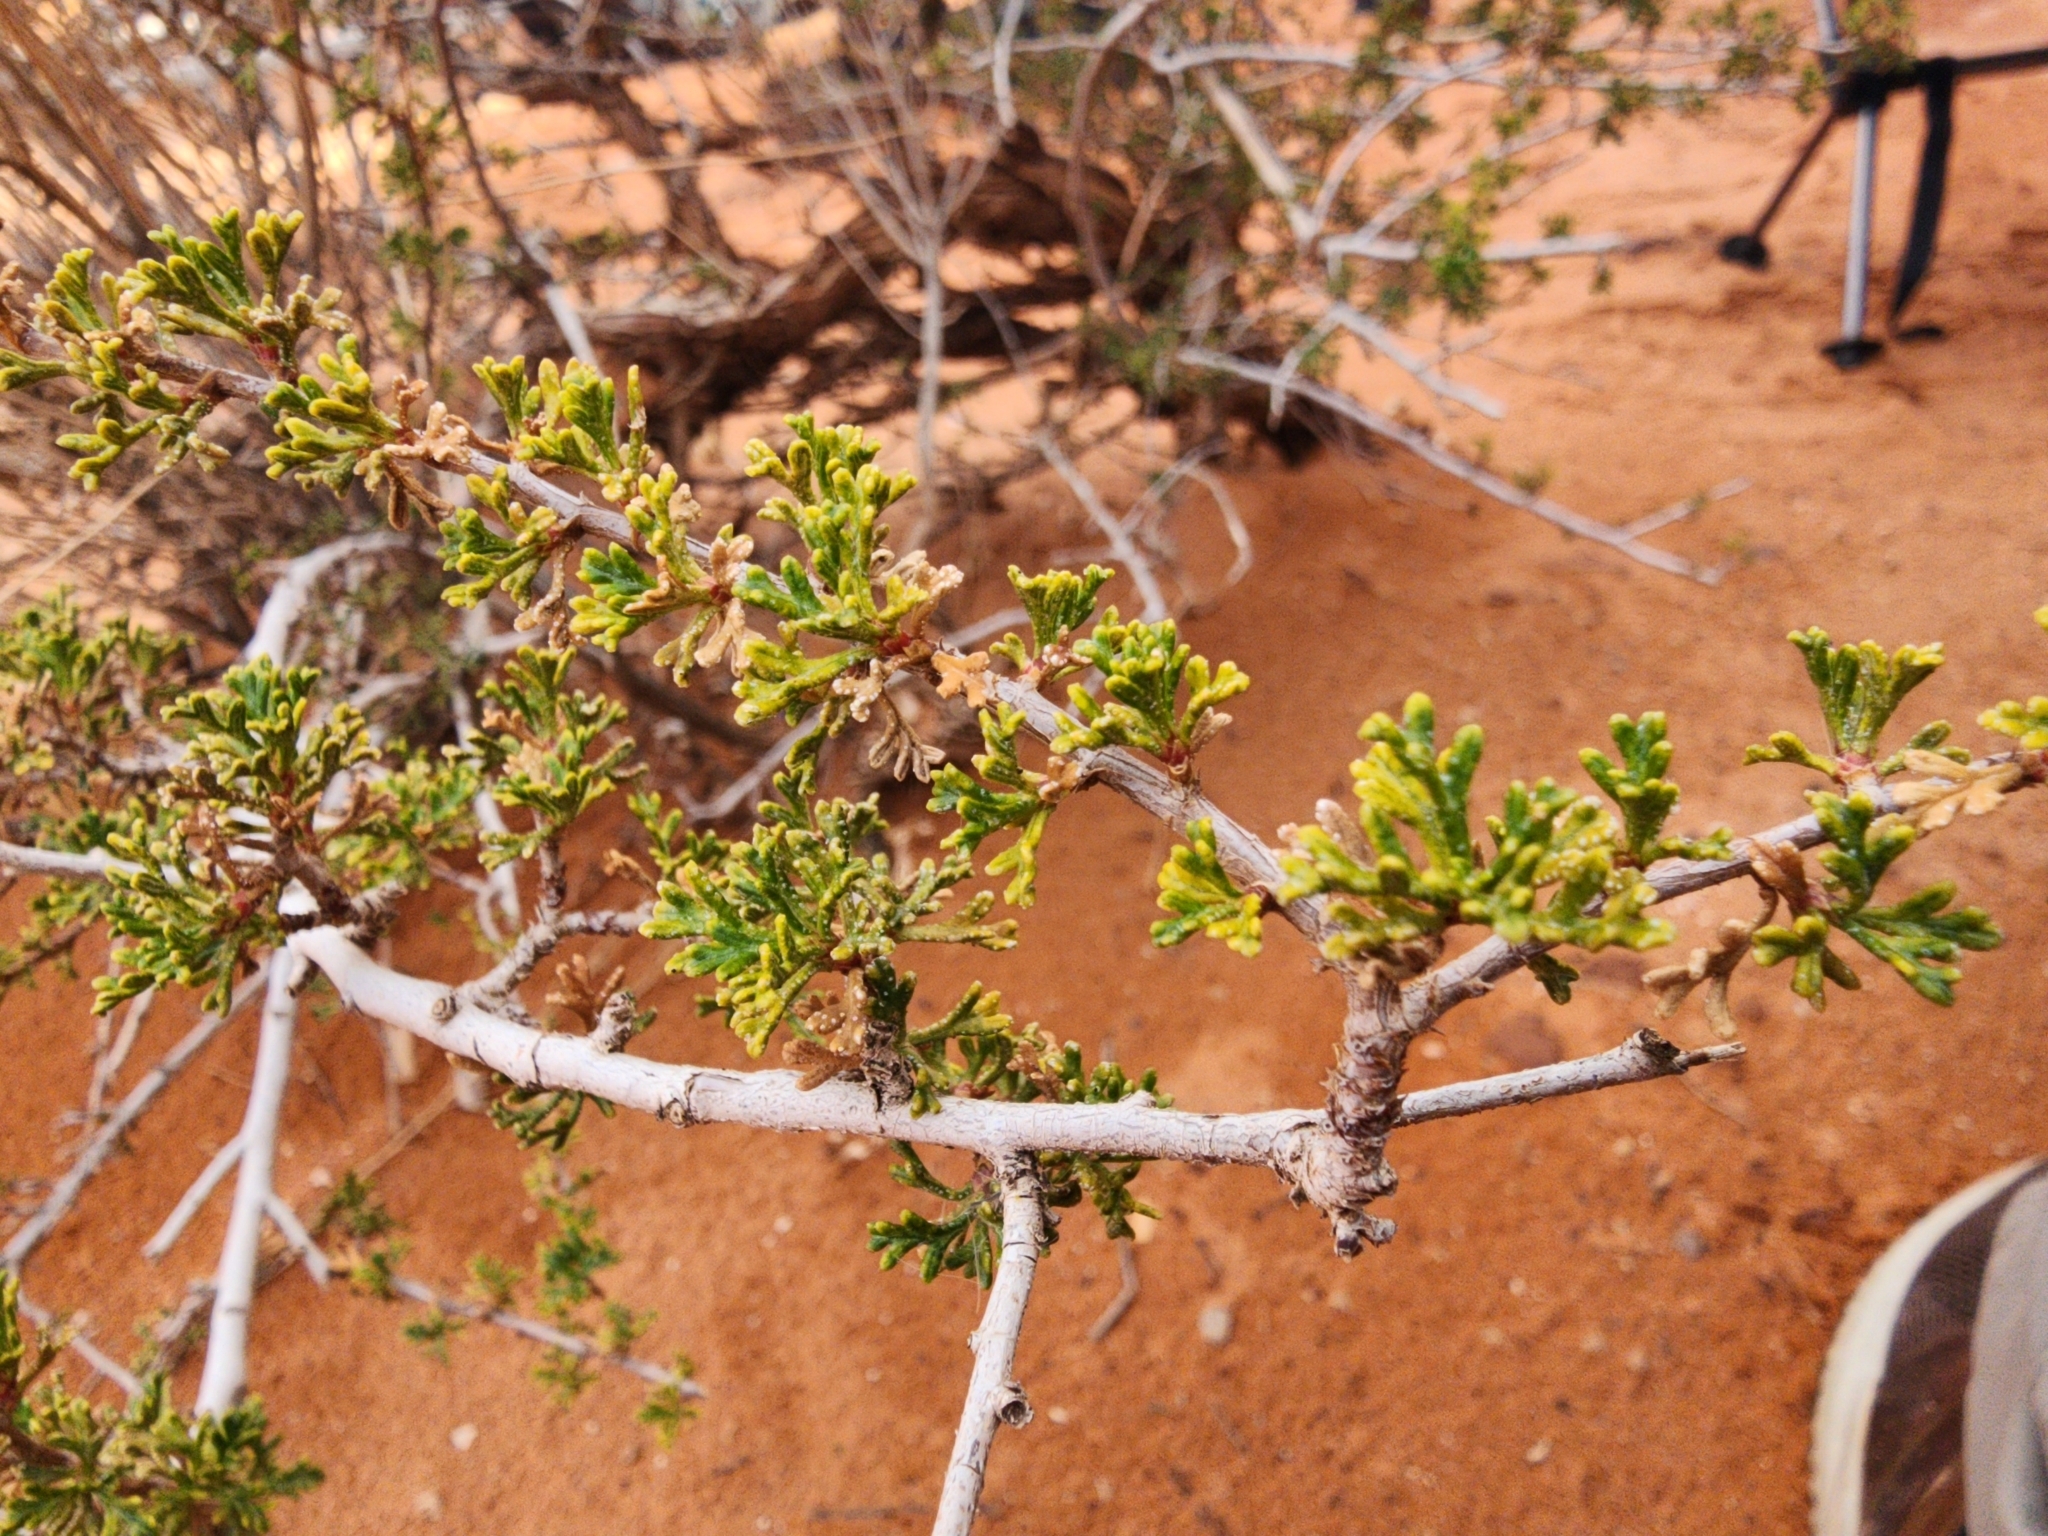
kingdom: Plantae
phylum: Tracheophyta
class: Magnoliopsida
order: Rosales
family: Rosaceae
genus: Purshia
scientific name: Purshia stansburiana
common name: Stansbury's cliffrose
